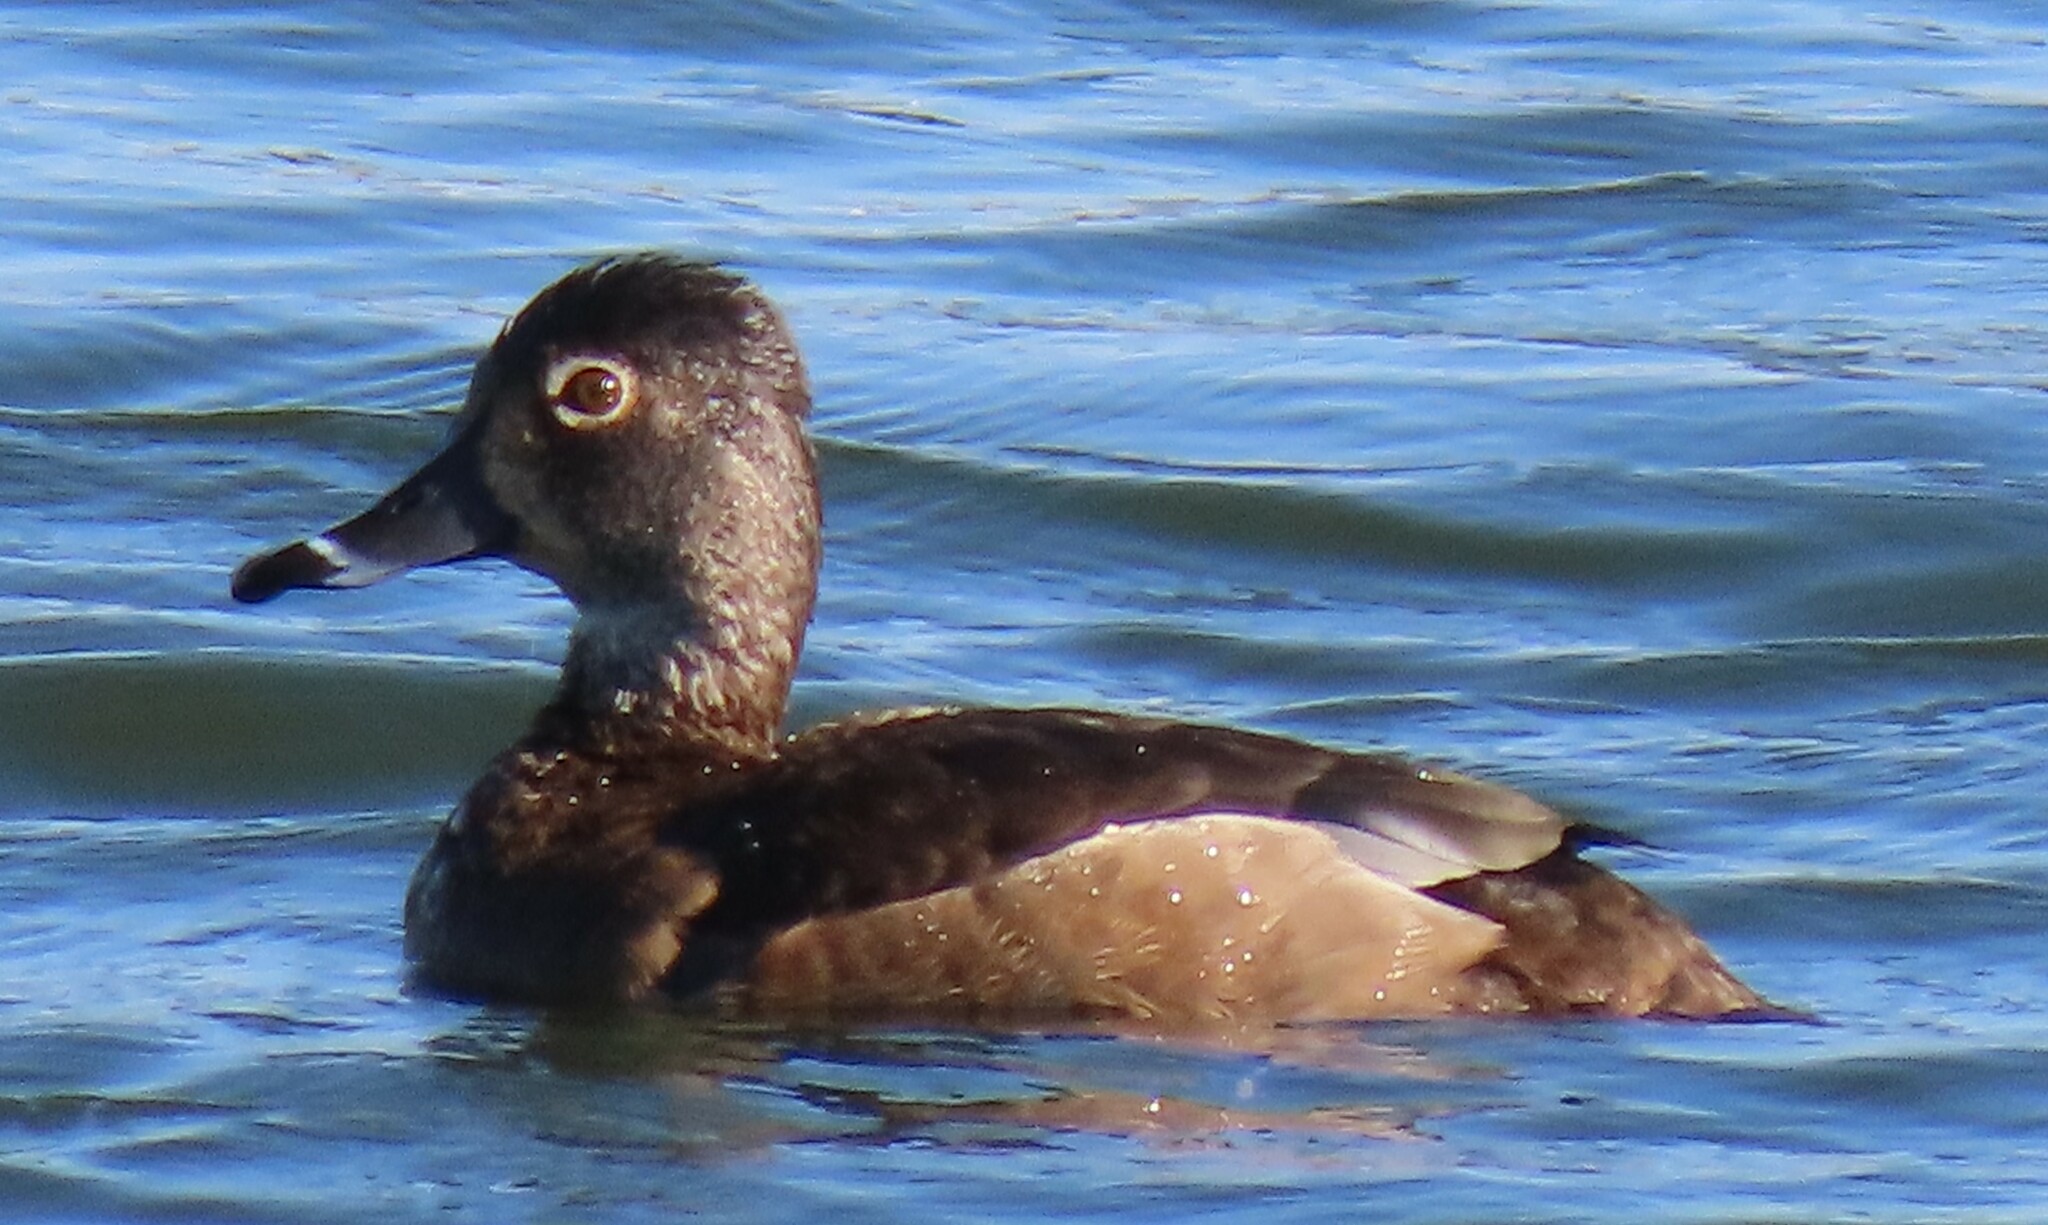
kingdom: Animalia
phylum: Chordata
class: Aves
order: Anseriformes
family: Anatidae
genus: Aythya
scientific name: Aythya collaris
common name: Ring-necked duck
